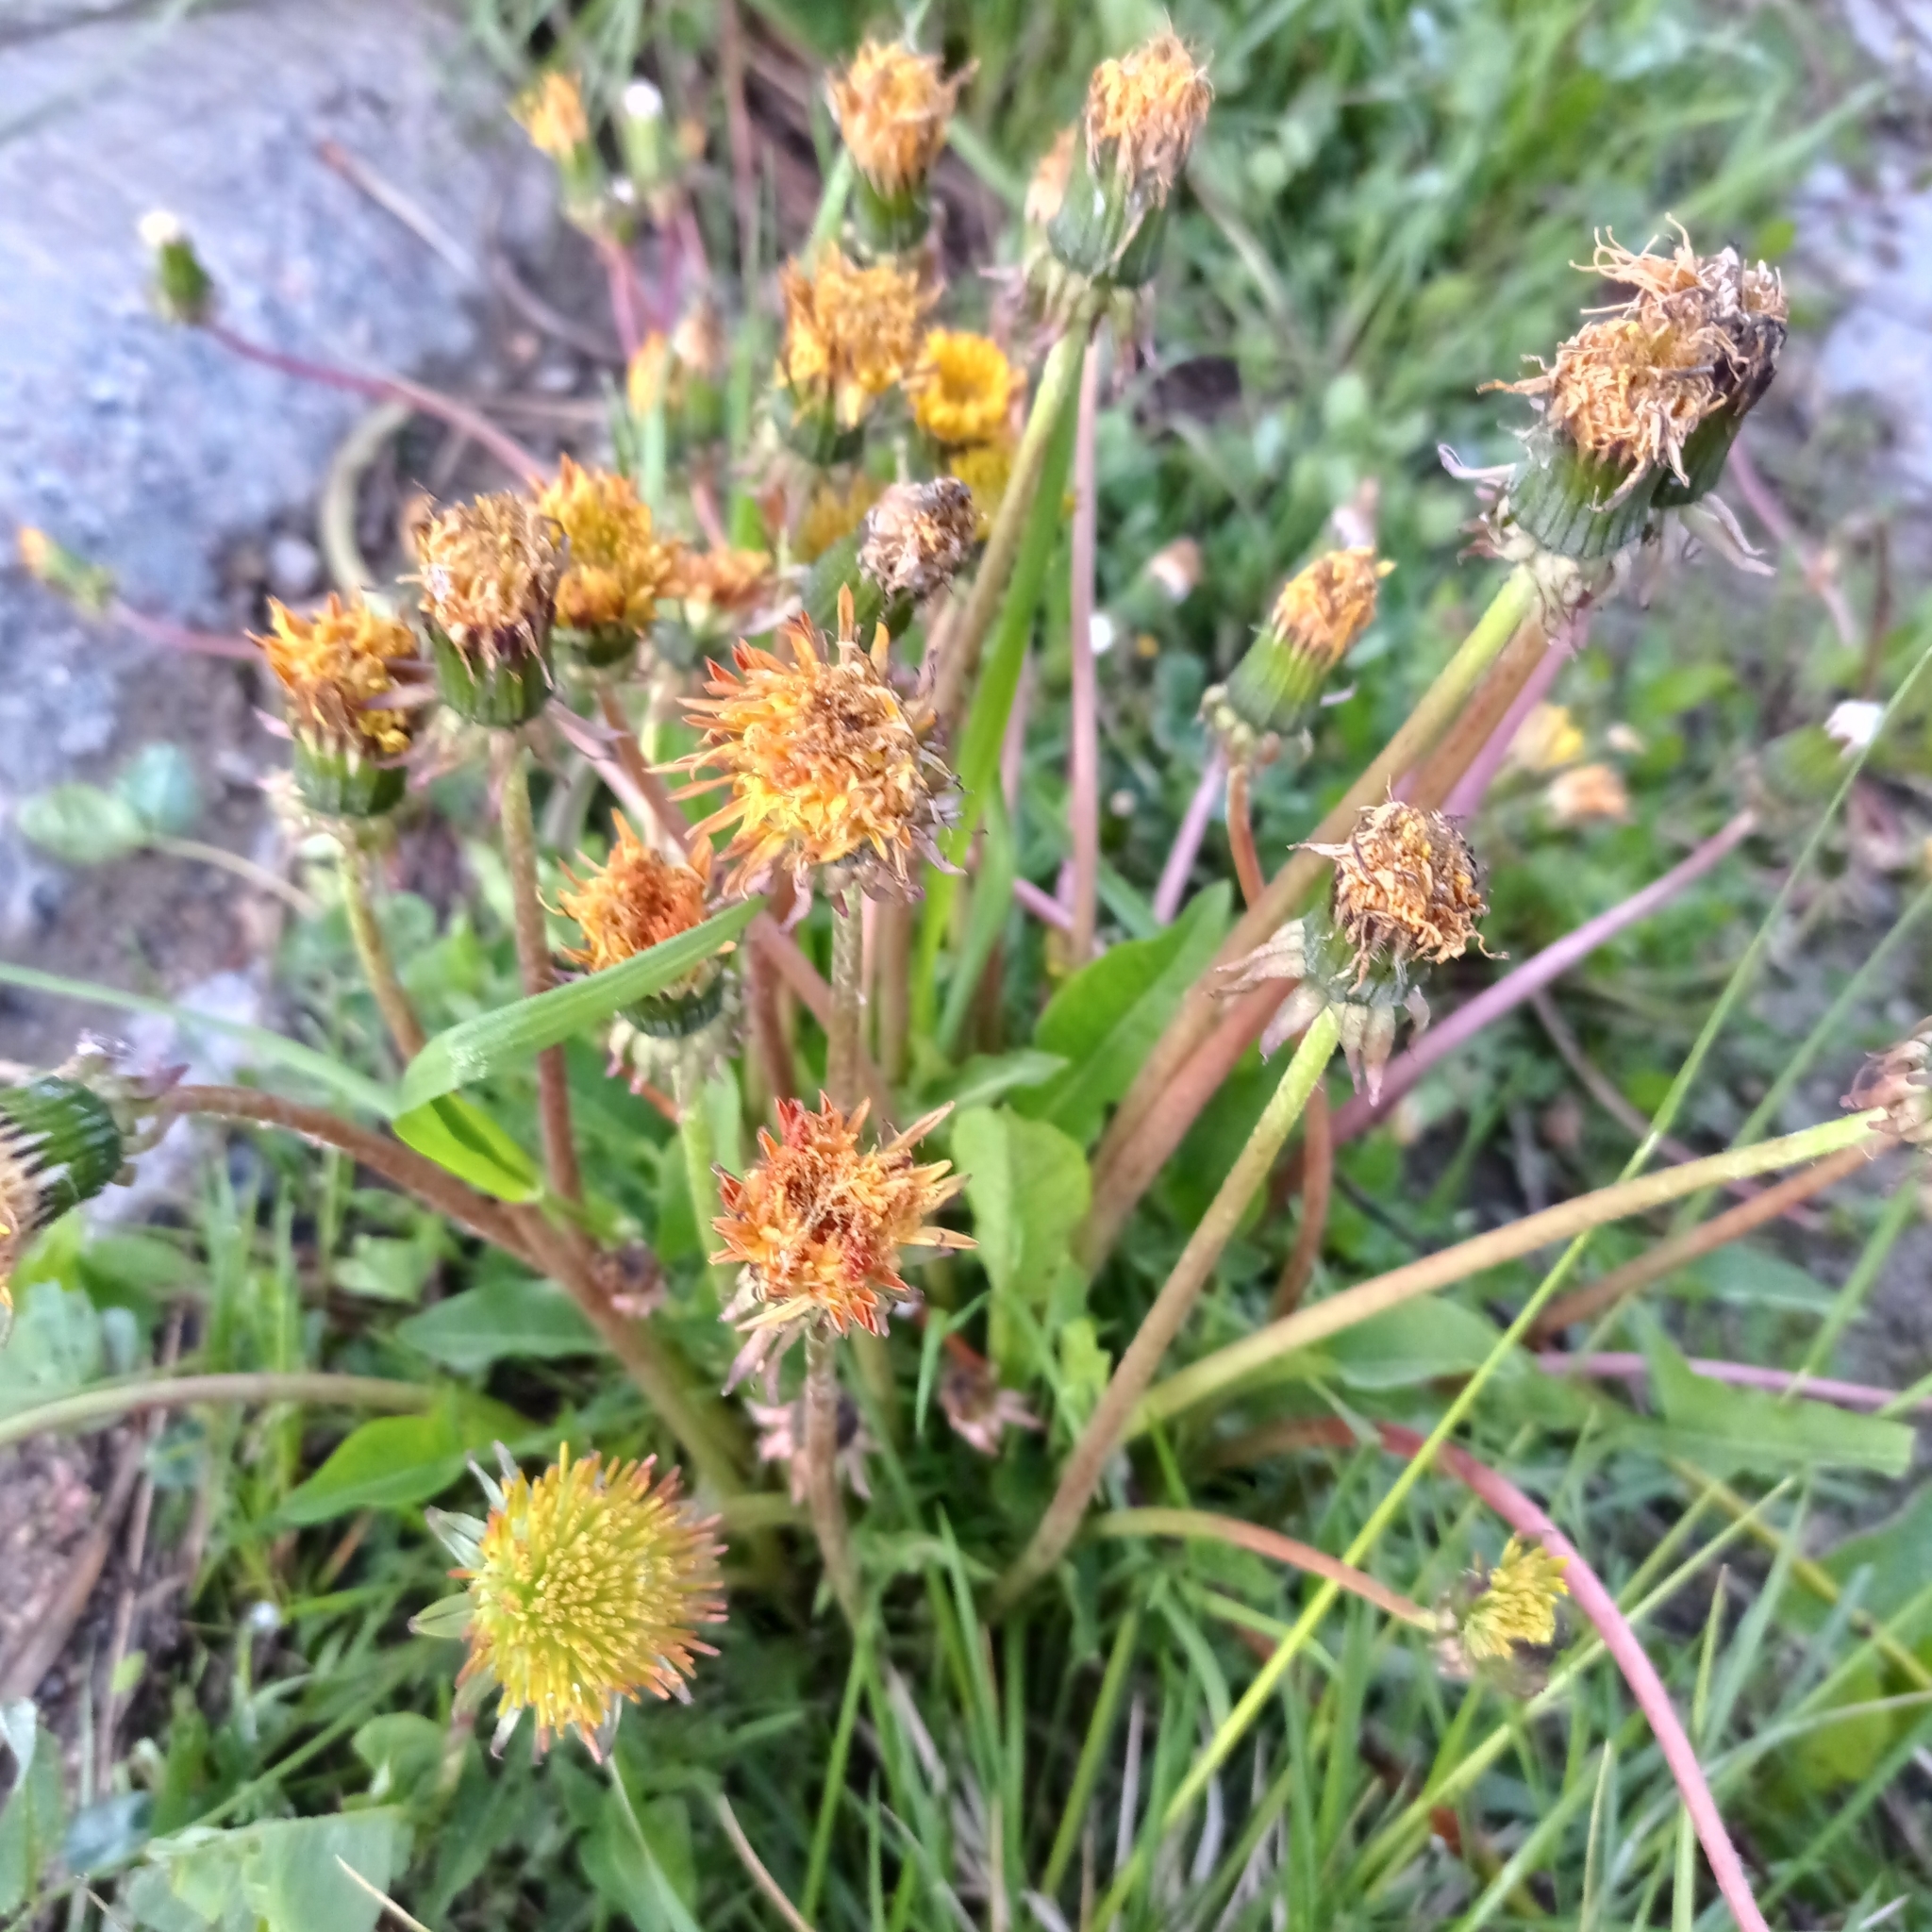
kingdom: Plantae
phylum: Tracheophyta
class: Magnoliopsida
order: Asterales
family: Asteraceae
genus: Taraxacum
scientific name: Taraxacum officinale
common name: Common dandelion
